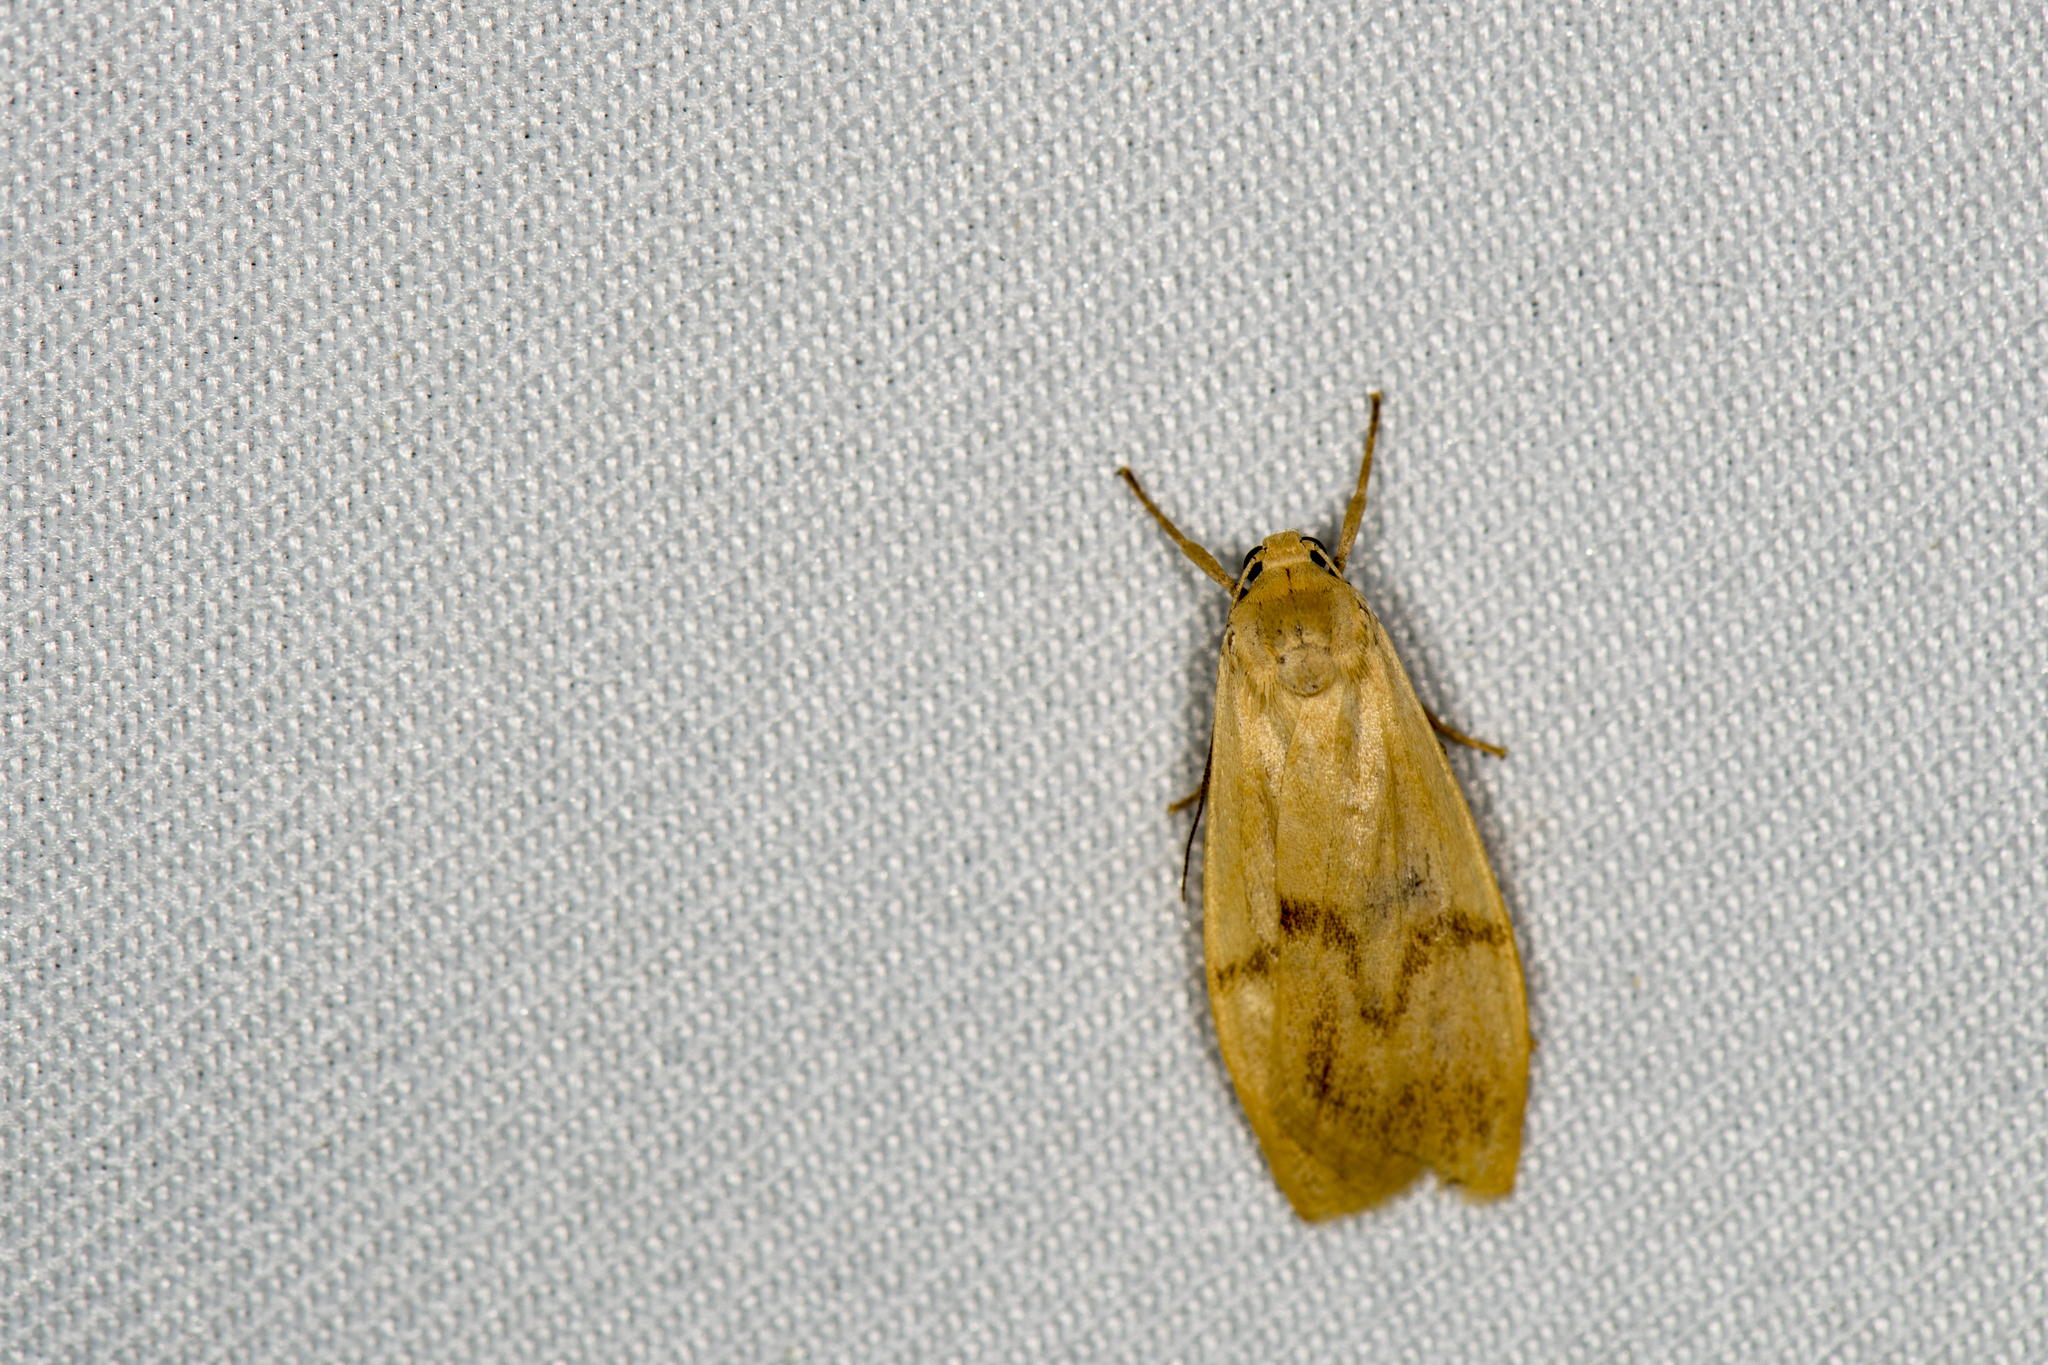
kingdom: Animalia
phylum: Arthropoda
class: Insecta
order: Lepidoptera
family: Erebidae
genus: Teuloma
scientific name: Teuloma tainebula
